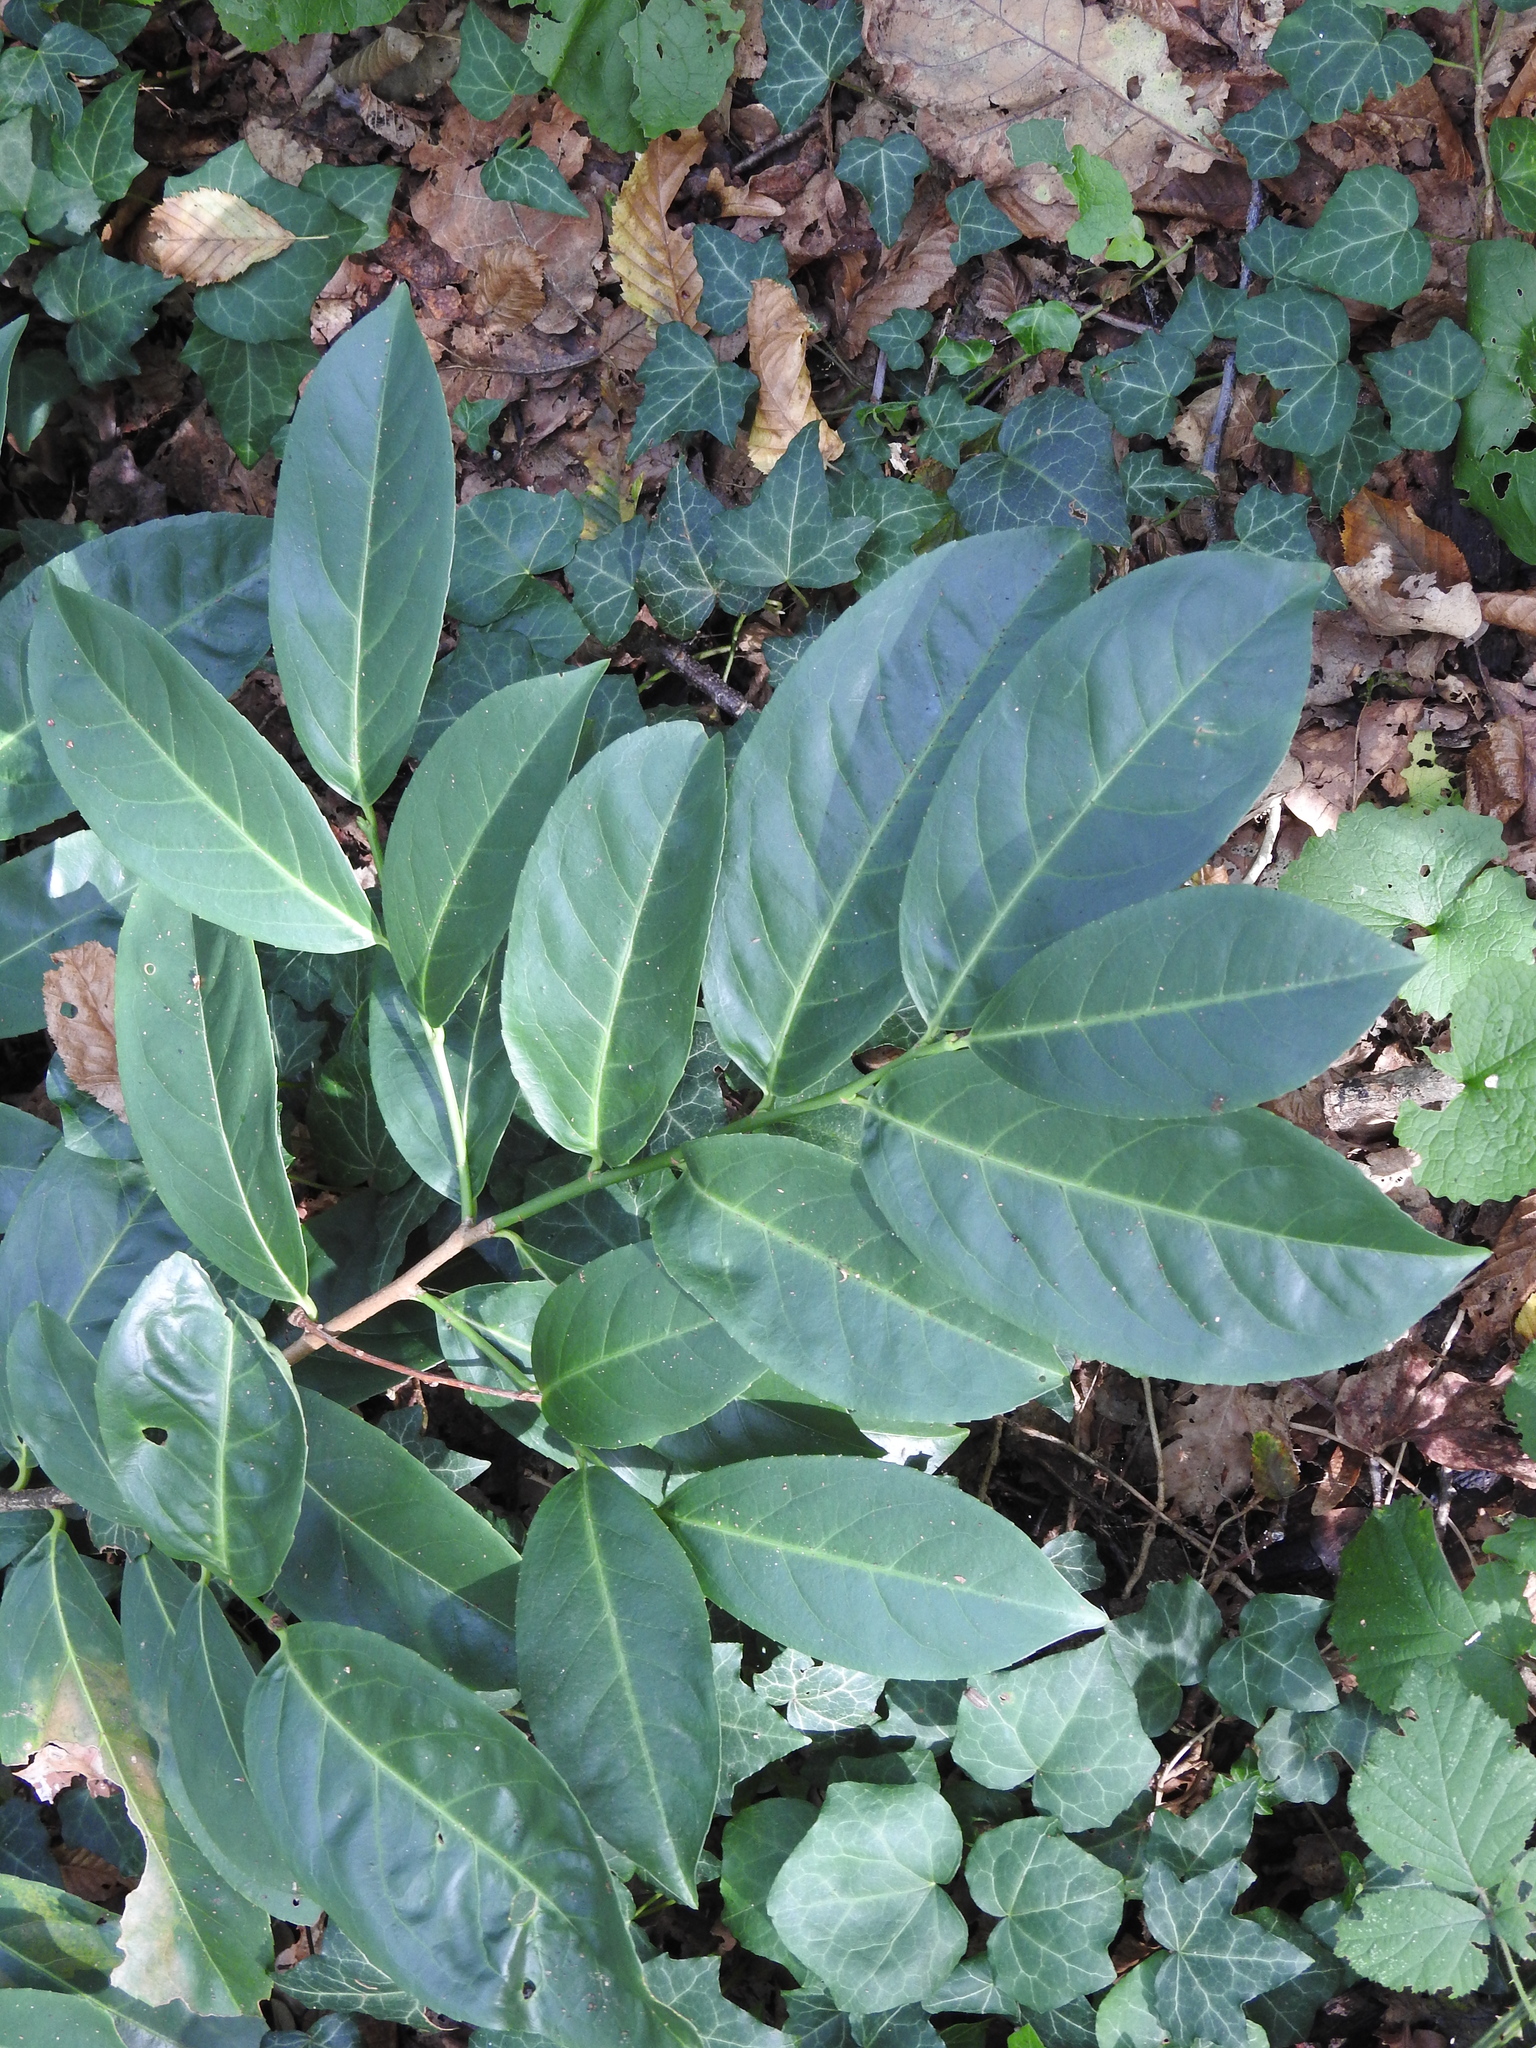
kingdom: Plantae
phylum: Tracheophyta
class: Magnoliopsida
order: Rosales
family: Rosaceae
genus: Prunus
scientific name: Prunus laurocerasus
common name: Cherry laurel
